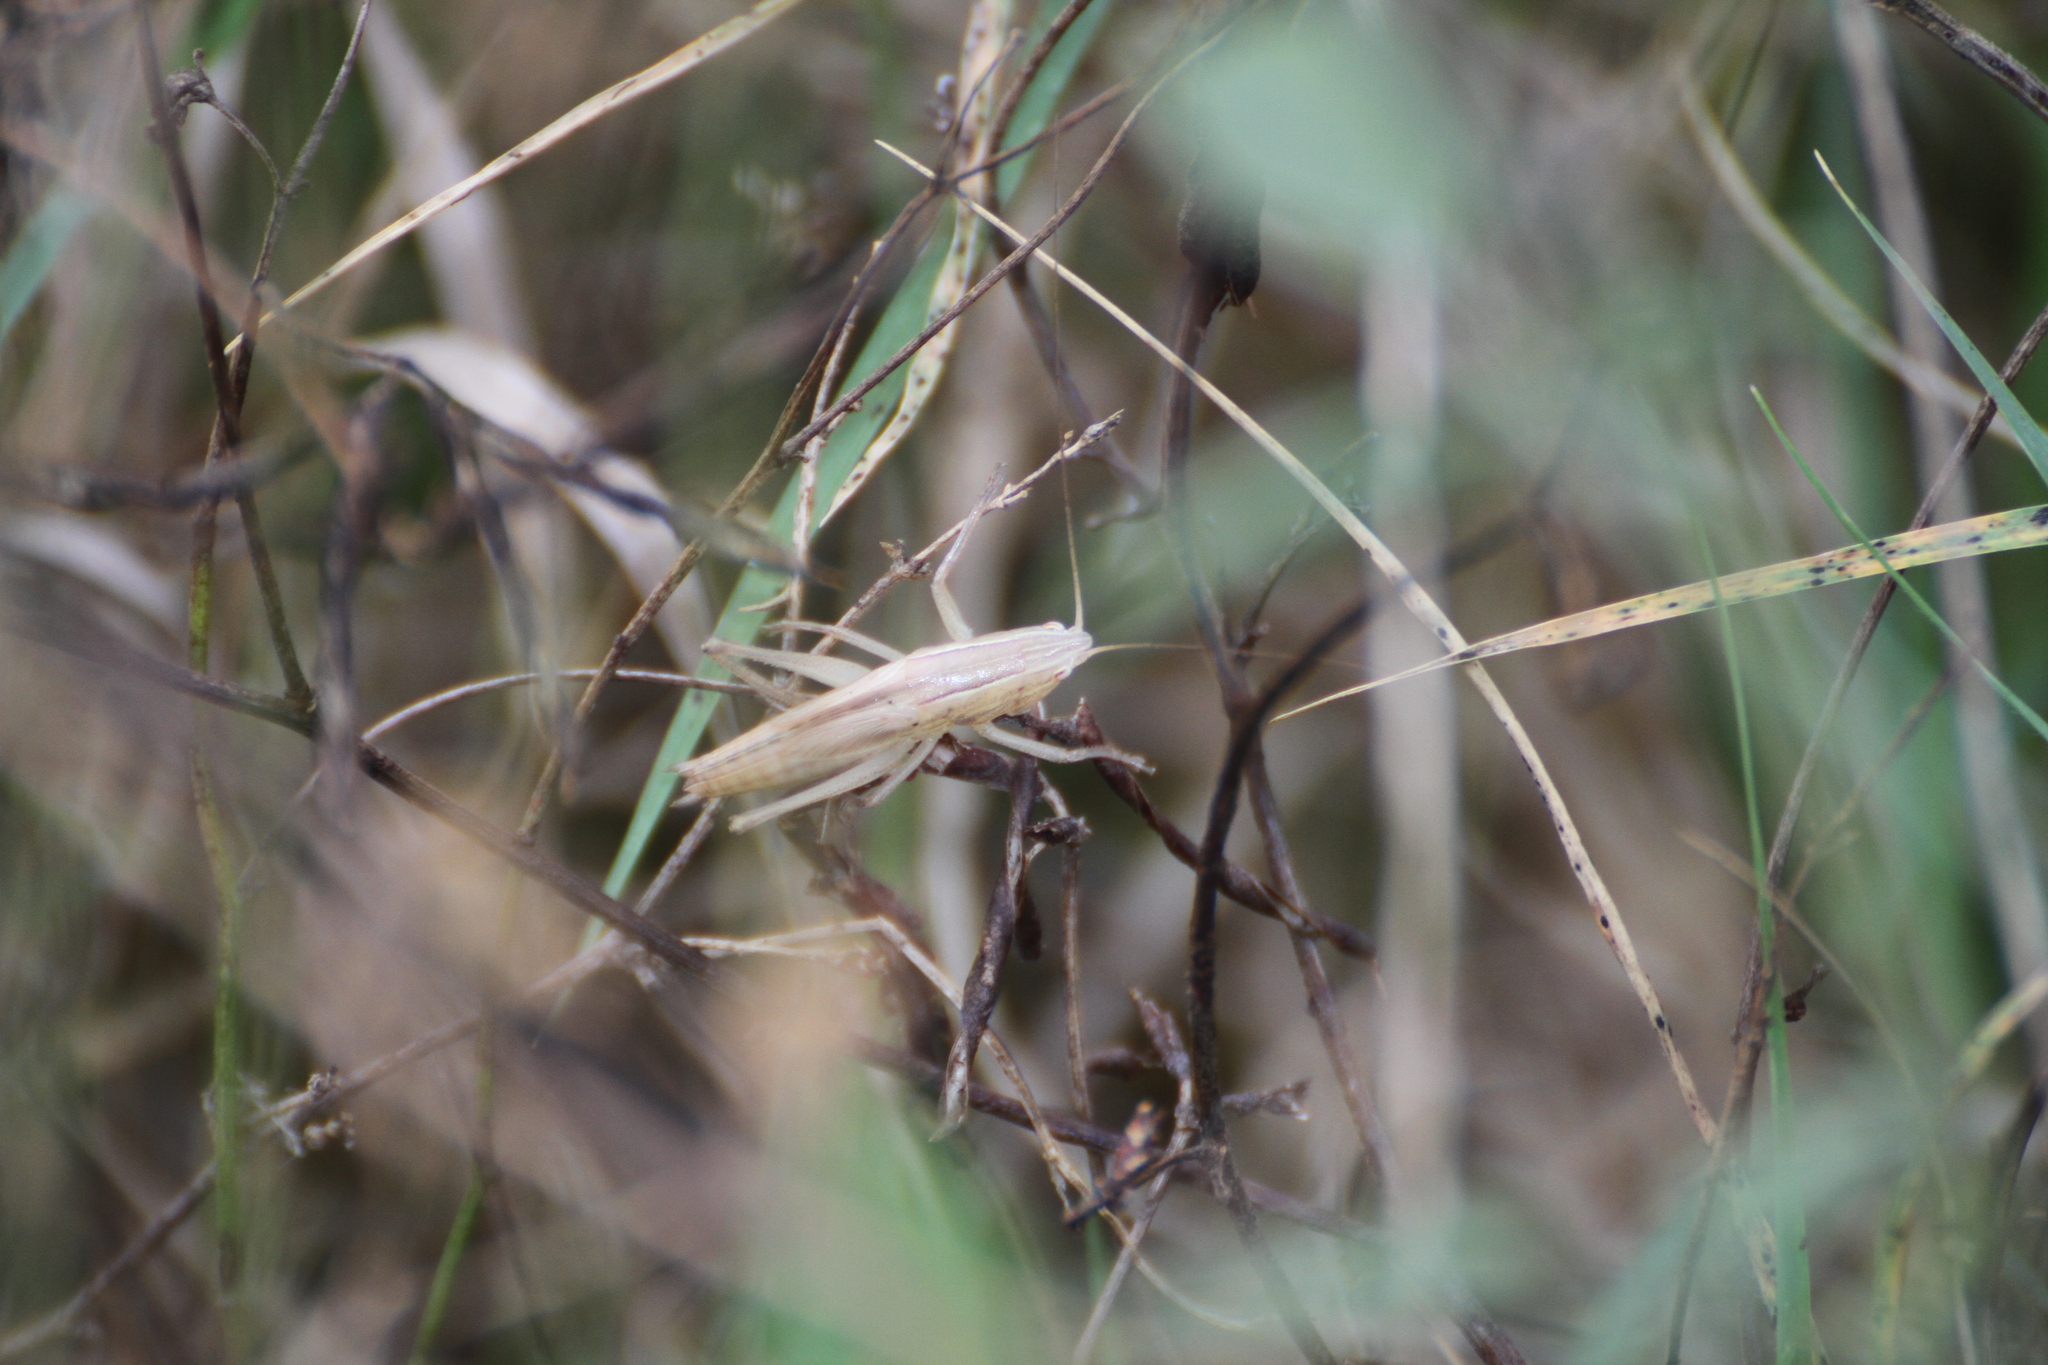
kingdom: Animalia
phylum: Arthropoda
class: Insecta
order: Orthoptera
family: Tettigoniidae
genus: Ruspolia
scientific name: Ruspolia nitidula
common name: Large conehead
